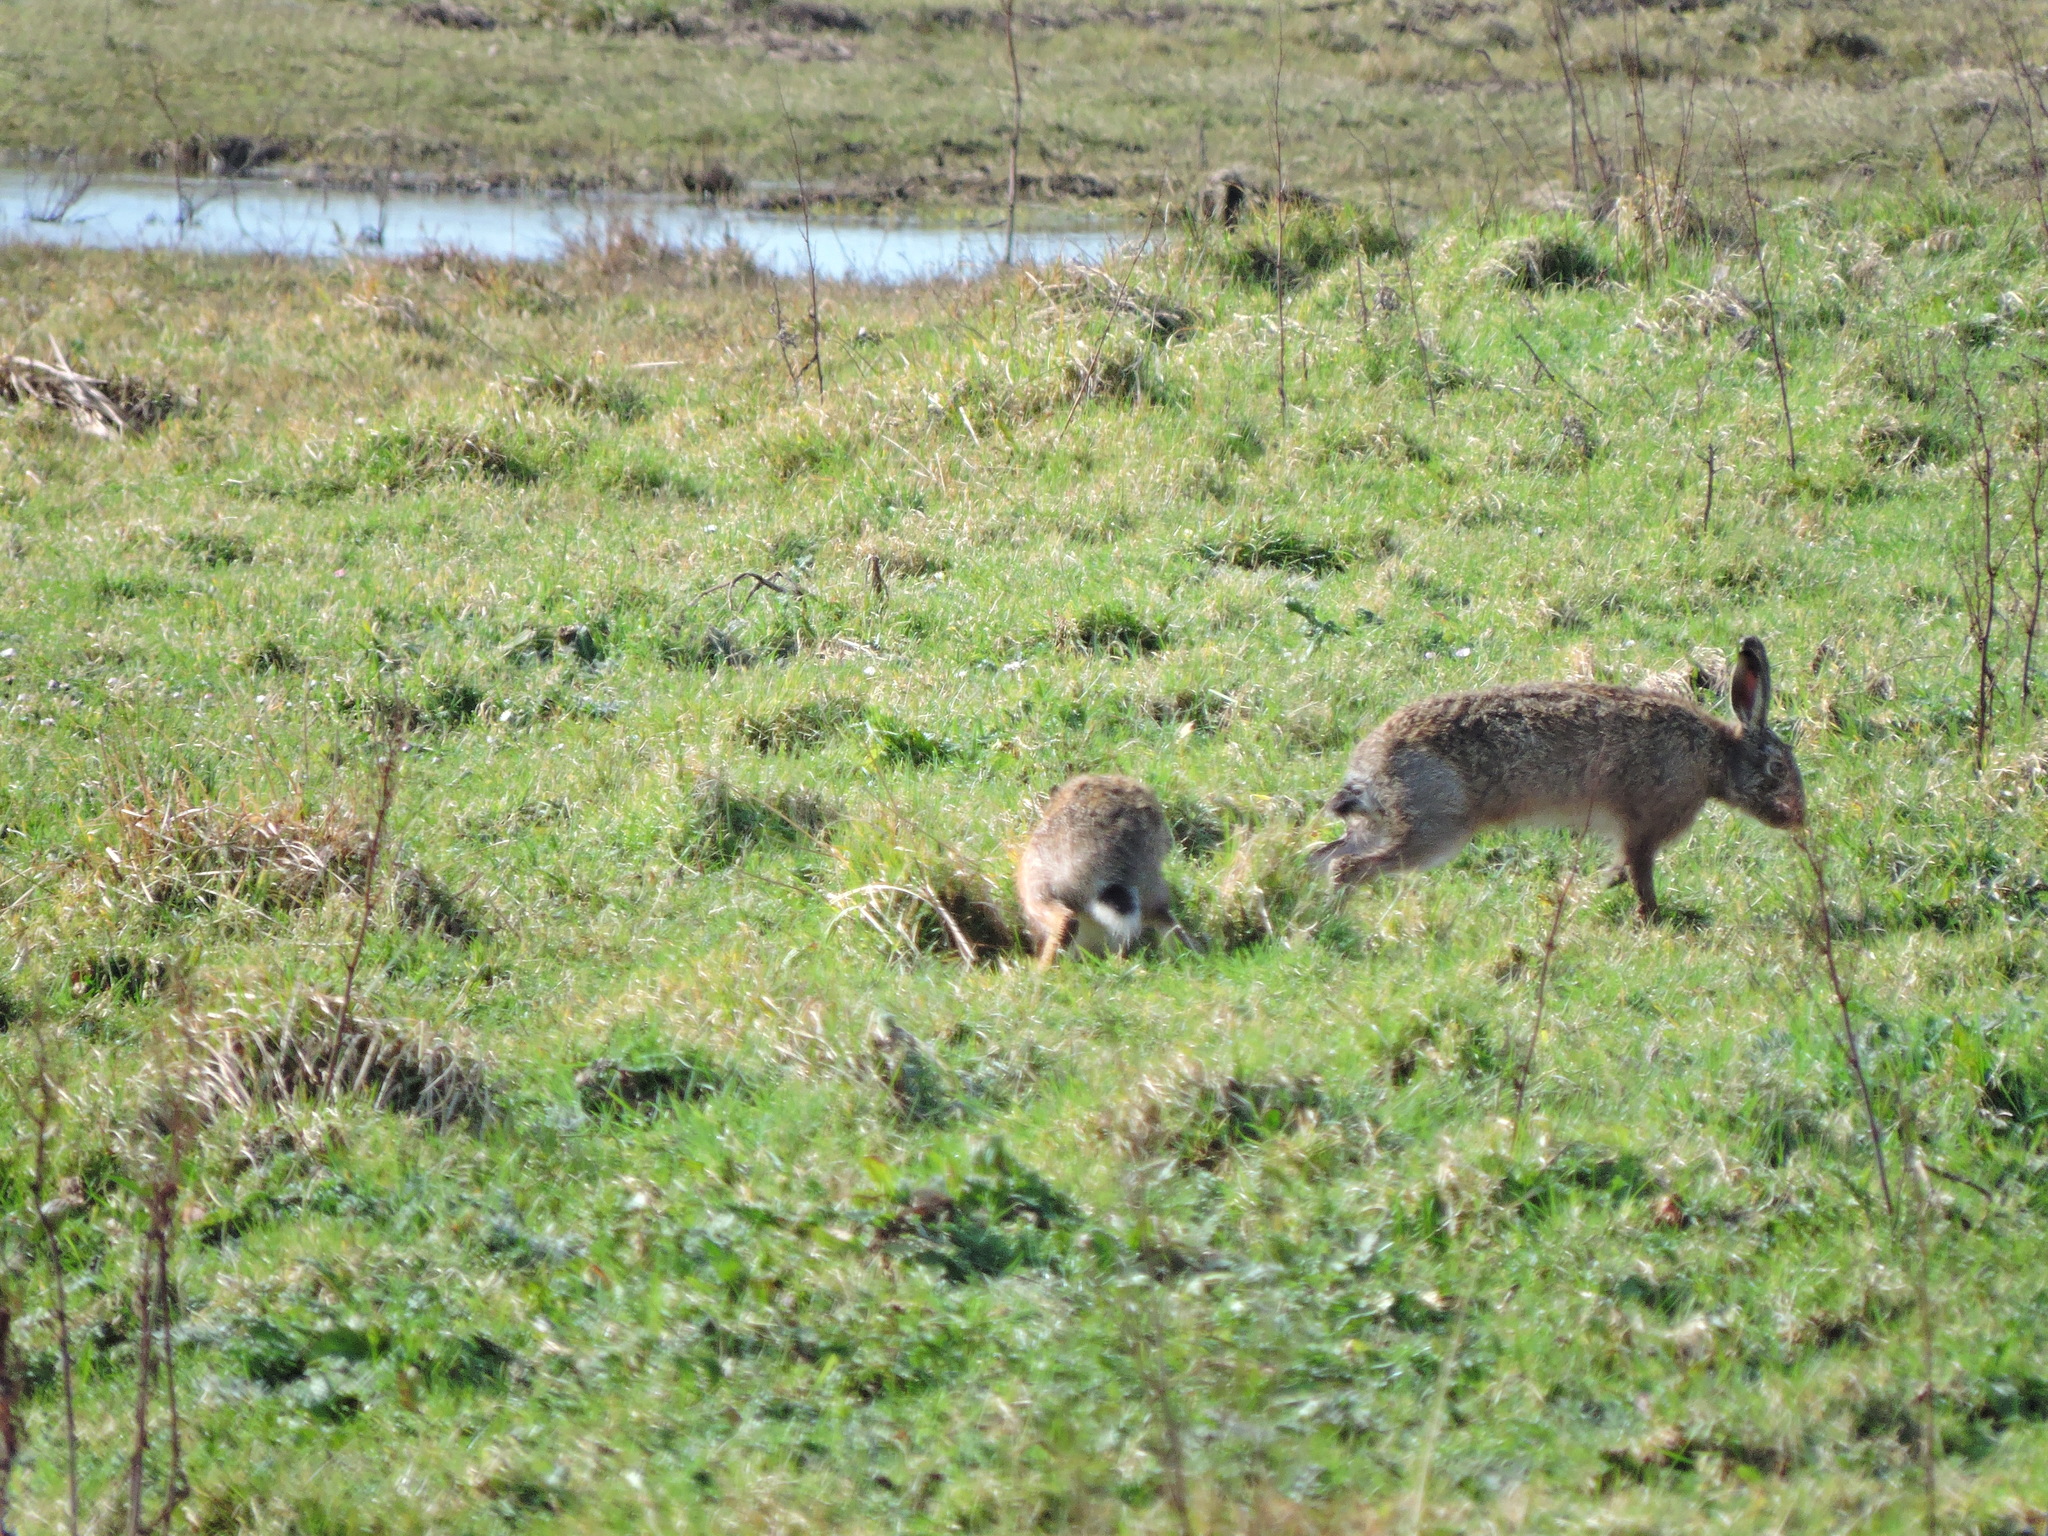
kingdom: Animalia
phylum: Chordata
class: Mammalia
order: Lagomorpha
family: Leporidae
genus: Lepus
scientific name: Lepus europaeus
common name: European hare
